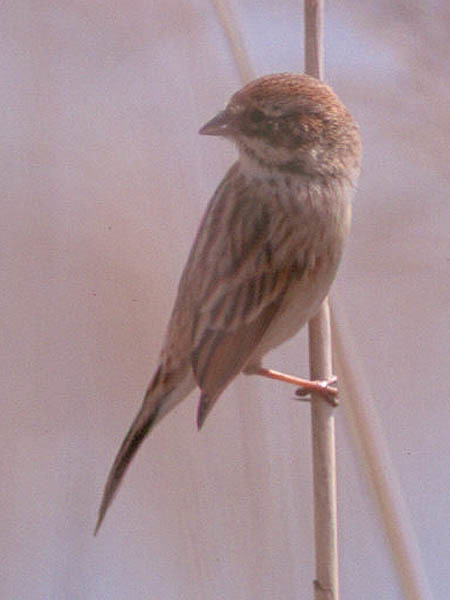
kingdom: Animalia
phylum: Chordata
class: Aves
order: Passeriformes
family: Emberizidae
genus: Emberiza
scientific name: Emberiza pallasi
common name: Pallas's reed bunting
